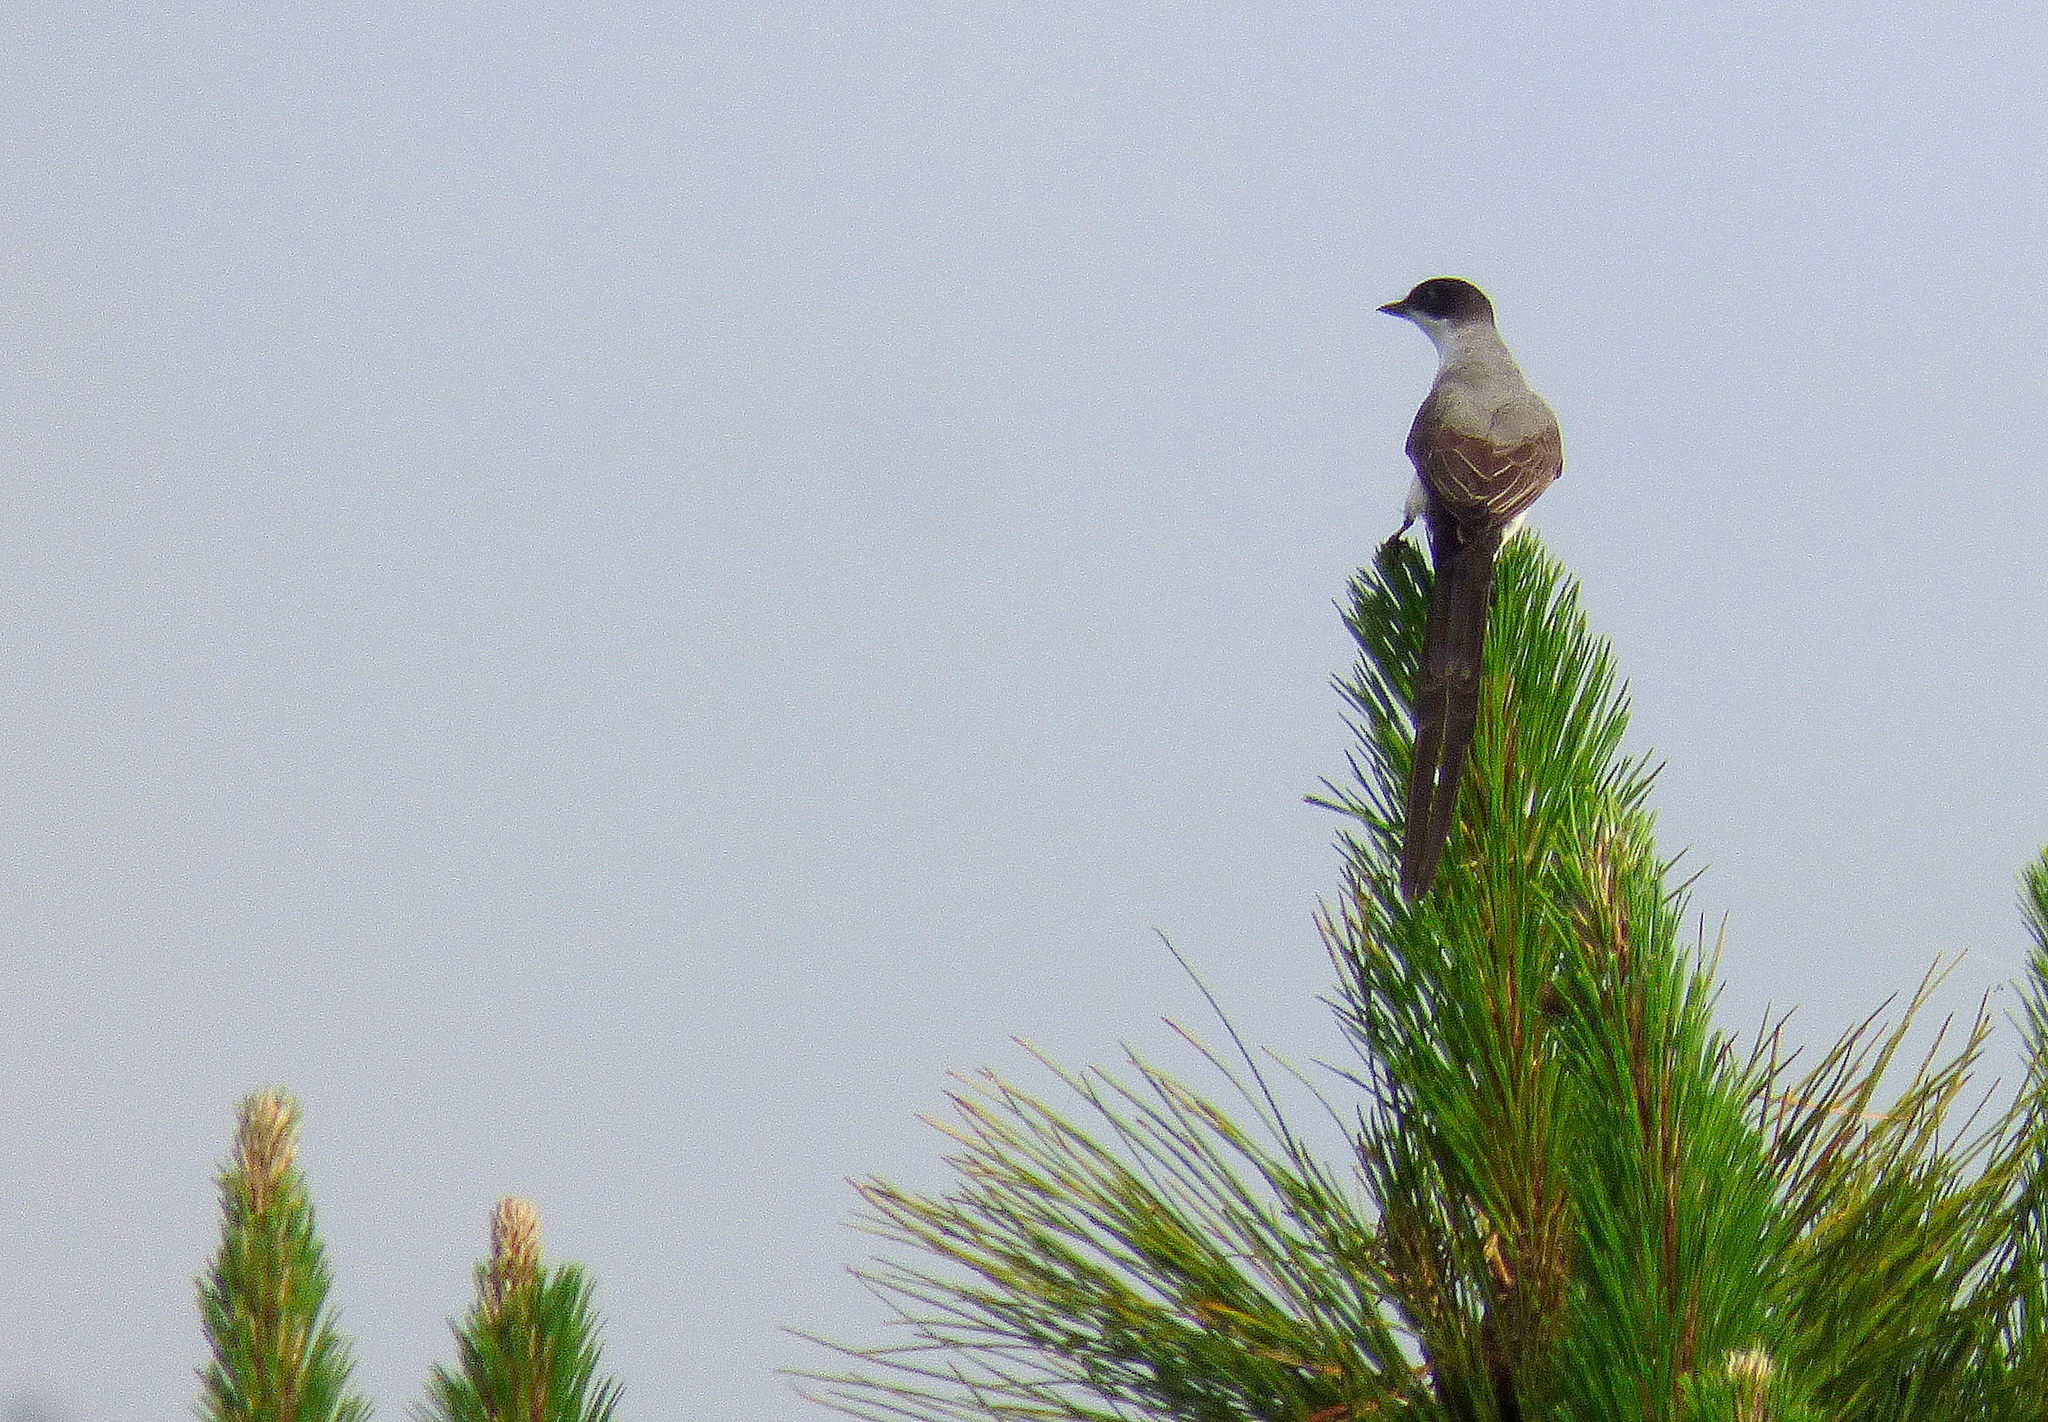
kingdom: Animalia
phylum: Chordata
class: Aves
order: Passeriformes
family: Tyrannidae
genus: Tyrannus
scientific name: Tyrannus savana
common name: Fork-tailed flycatcher
